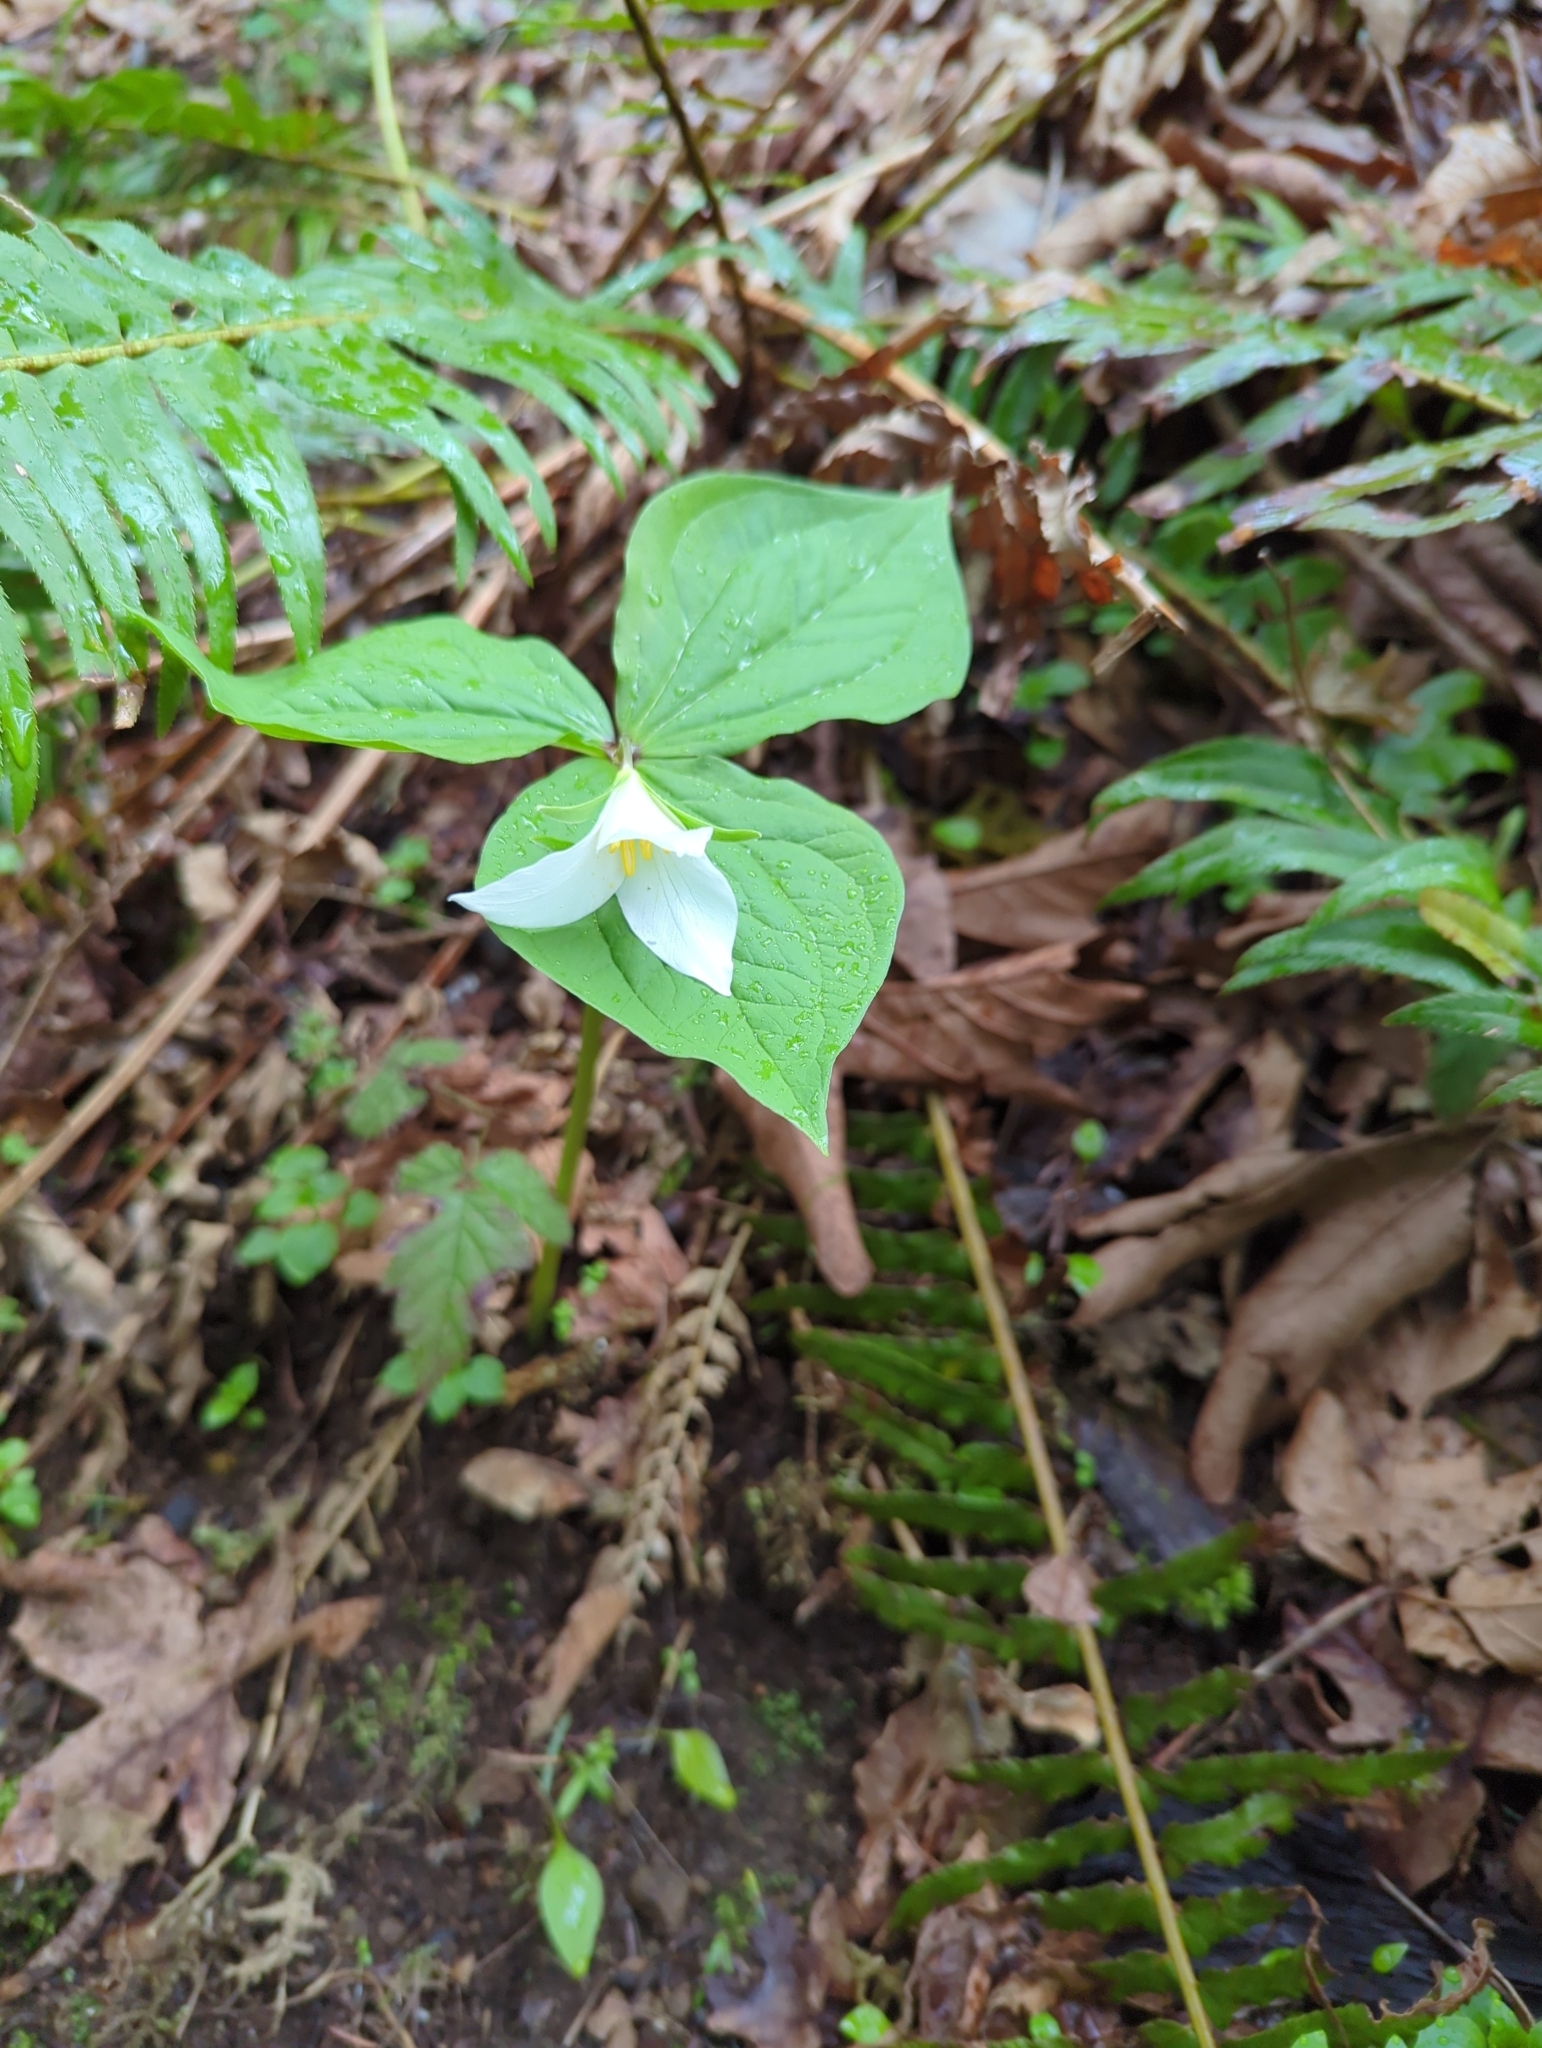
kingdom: Plantae
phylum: Tracheophyta
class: Liliopsida
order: Liliales
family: Melanthiaceae
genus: Trillium
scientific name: Trillium ovatum
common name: Pacific trillium
